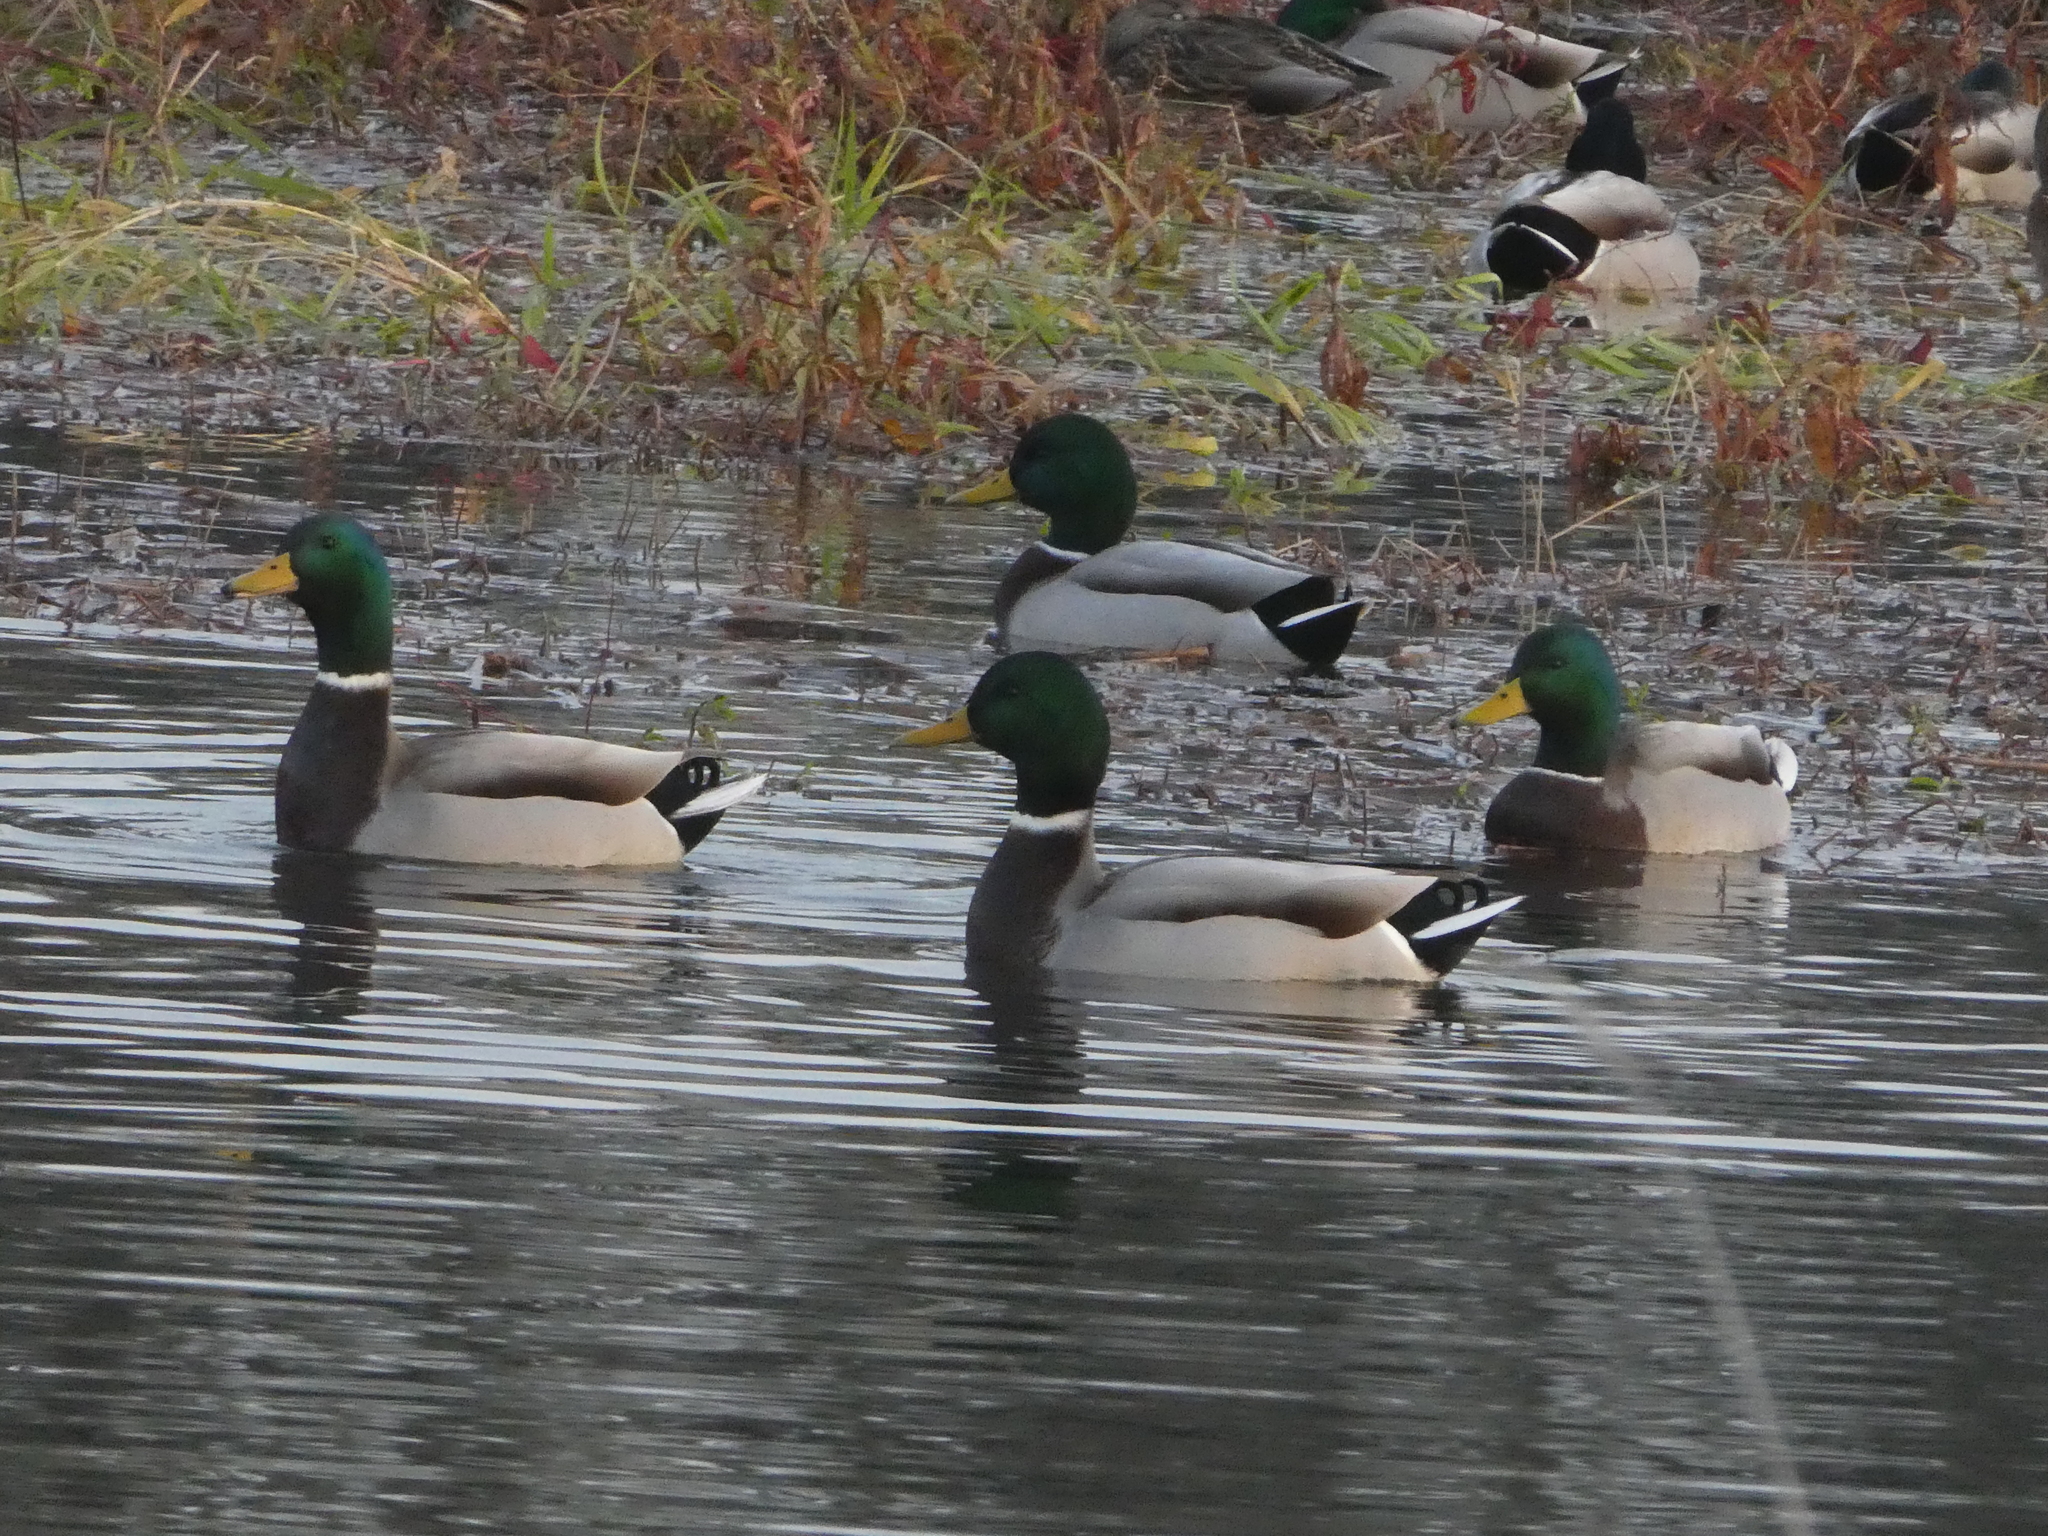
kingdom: Animalia
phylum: Chordata
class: Aves
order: Anseriformes
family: Anatidae
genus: Anas
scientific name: Anas platyrhynchos
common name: Mallard
